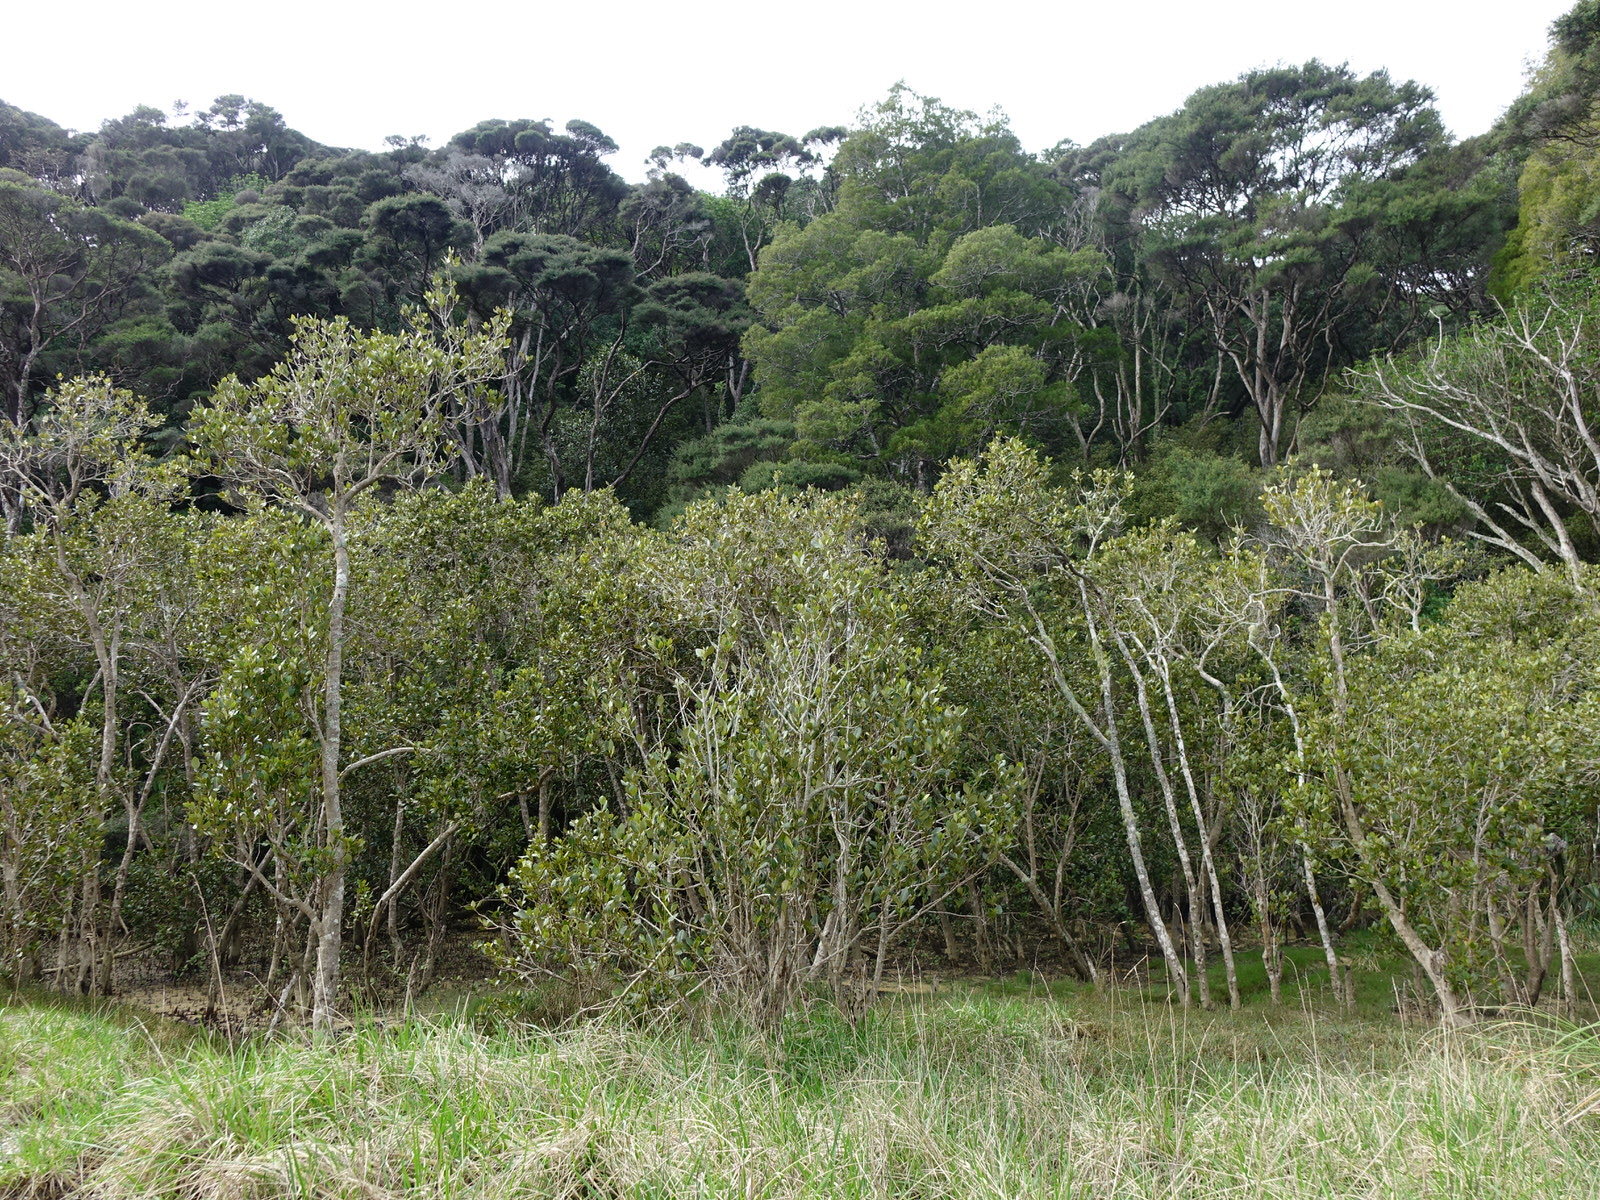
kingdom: Plantae
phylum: Tracheophyta
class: Magnoliopsida
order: Lamiales
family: Acanthaceae
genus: Avicennia
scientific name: Avicennia marina
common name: Gray mangrove
